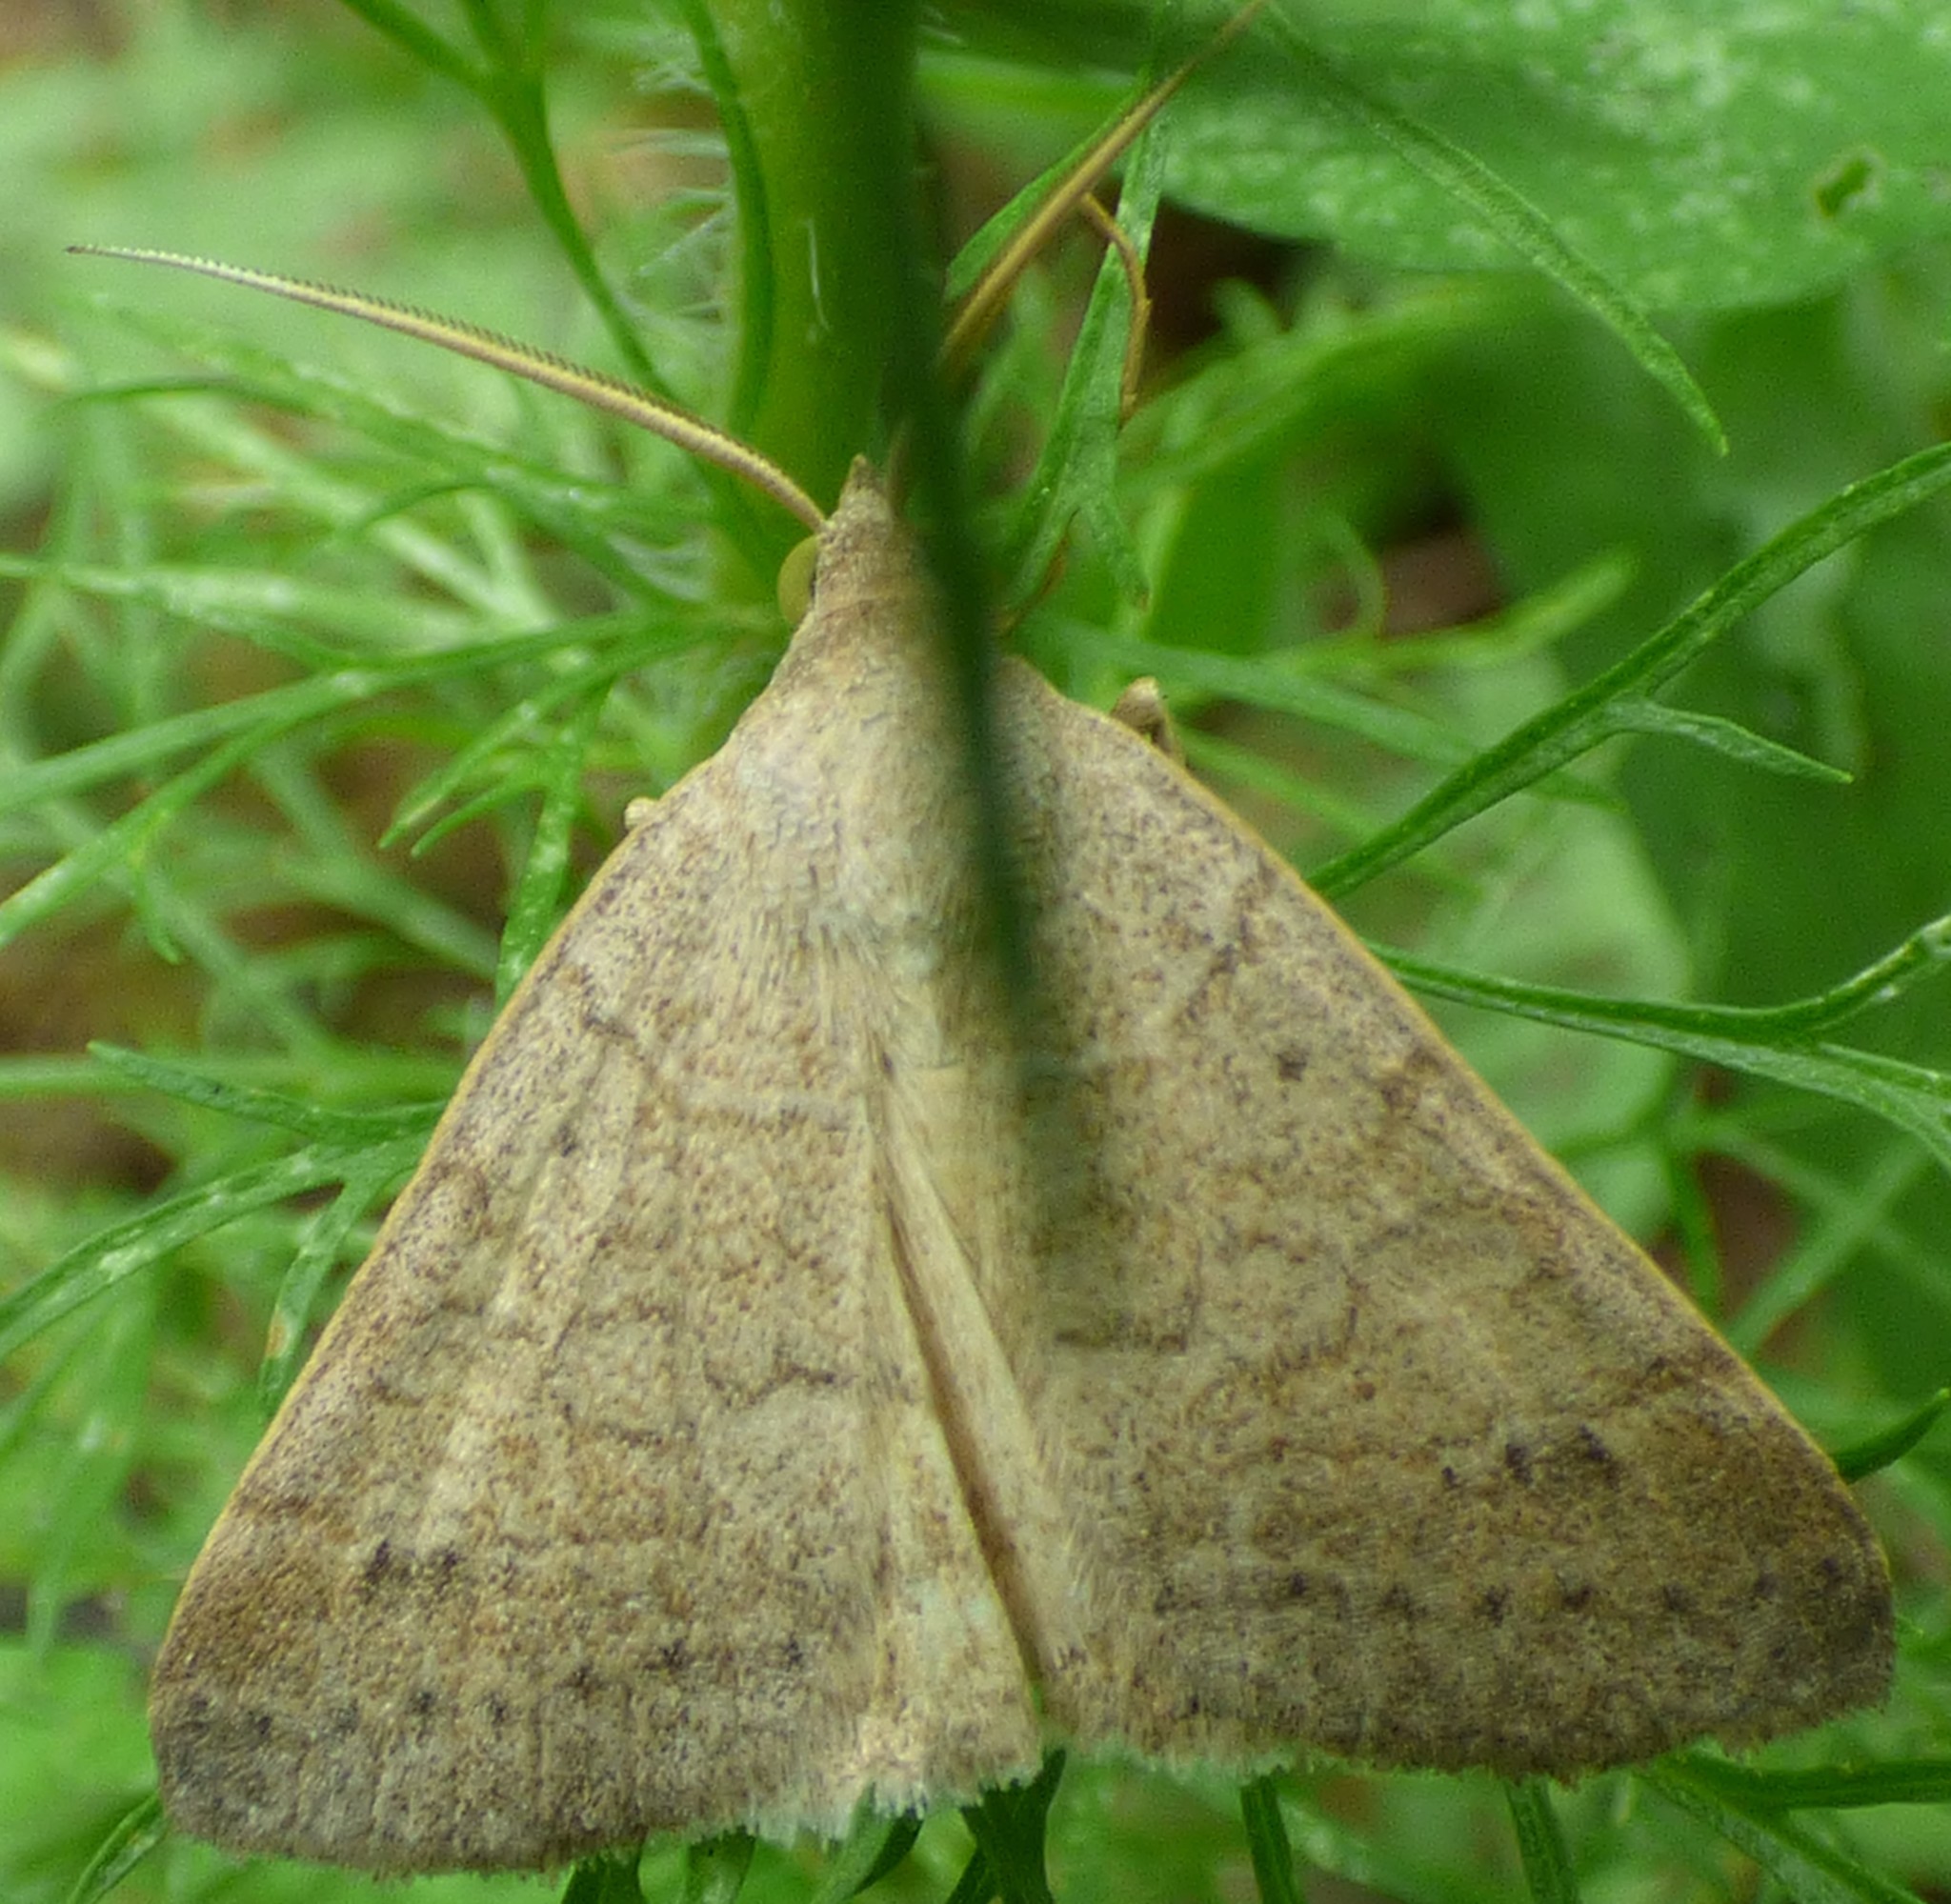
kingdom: Animalia
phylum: Arthropoda
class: Insecta
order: Lepidoptera
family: Erebidae
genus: Caenurgia
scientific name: Caenurgia chloropha
